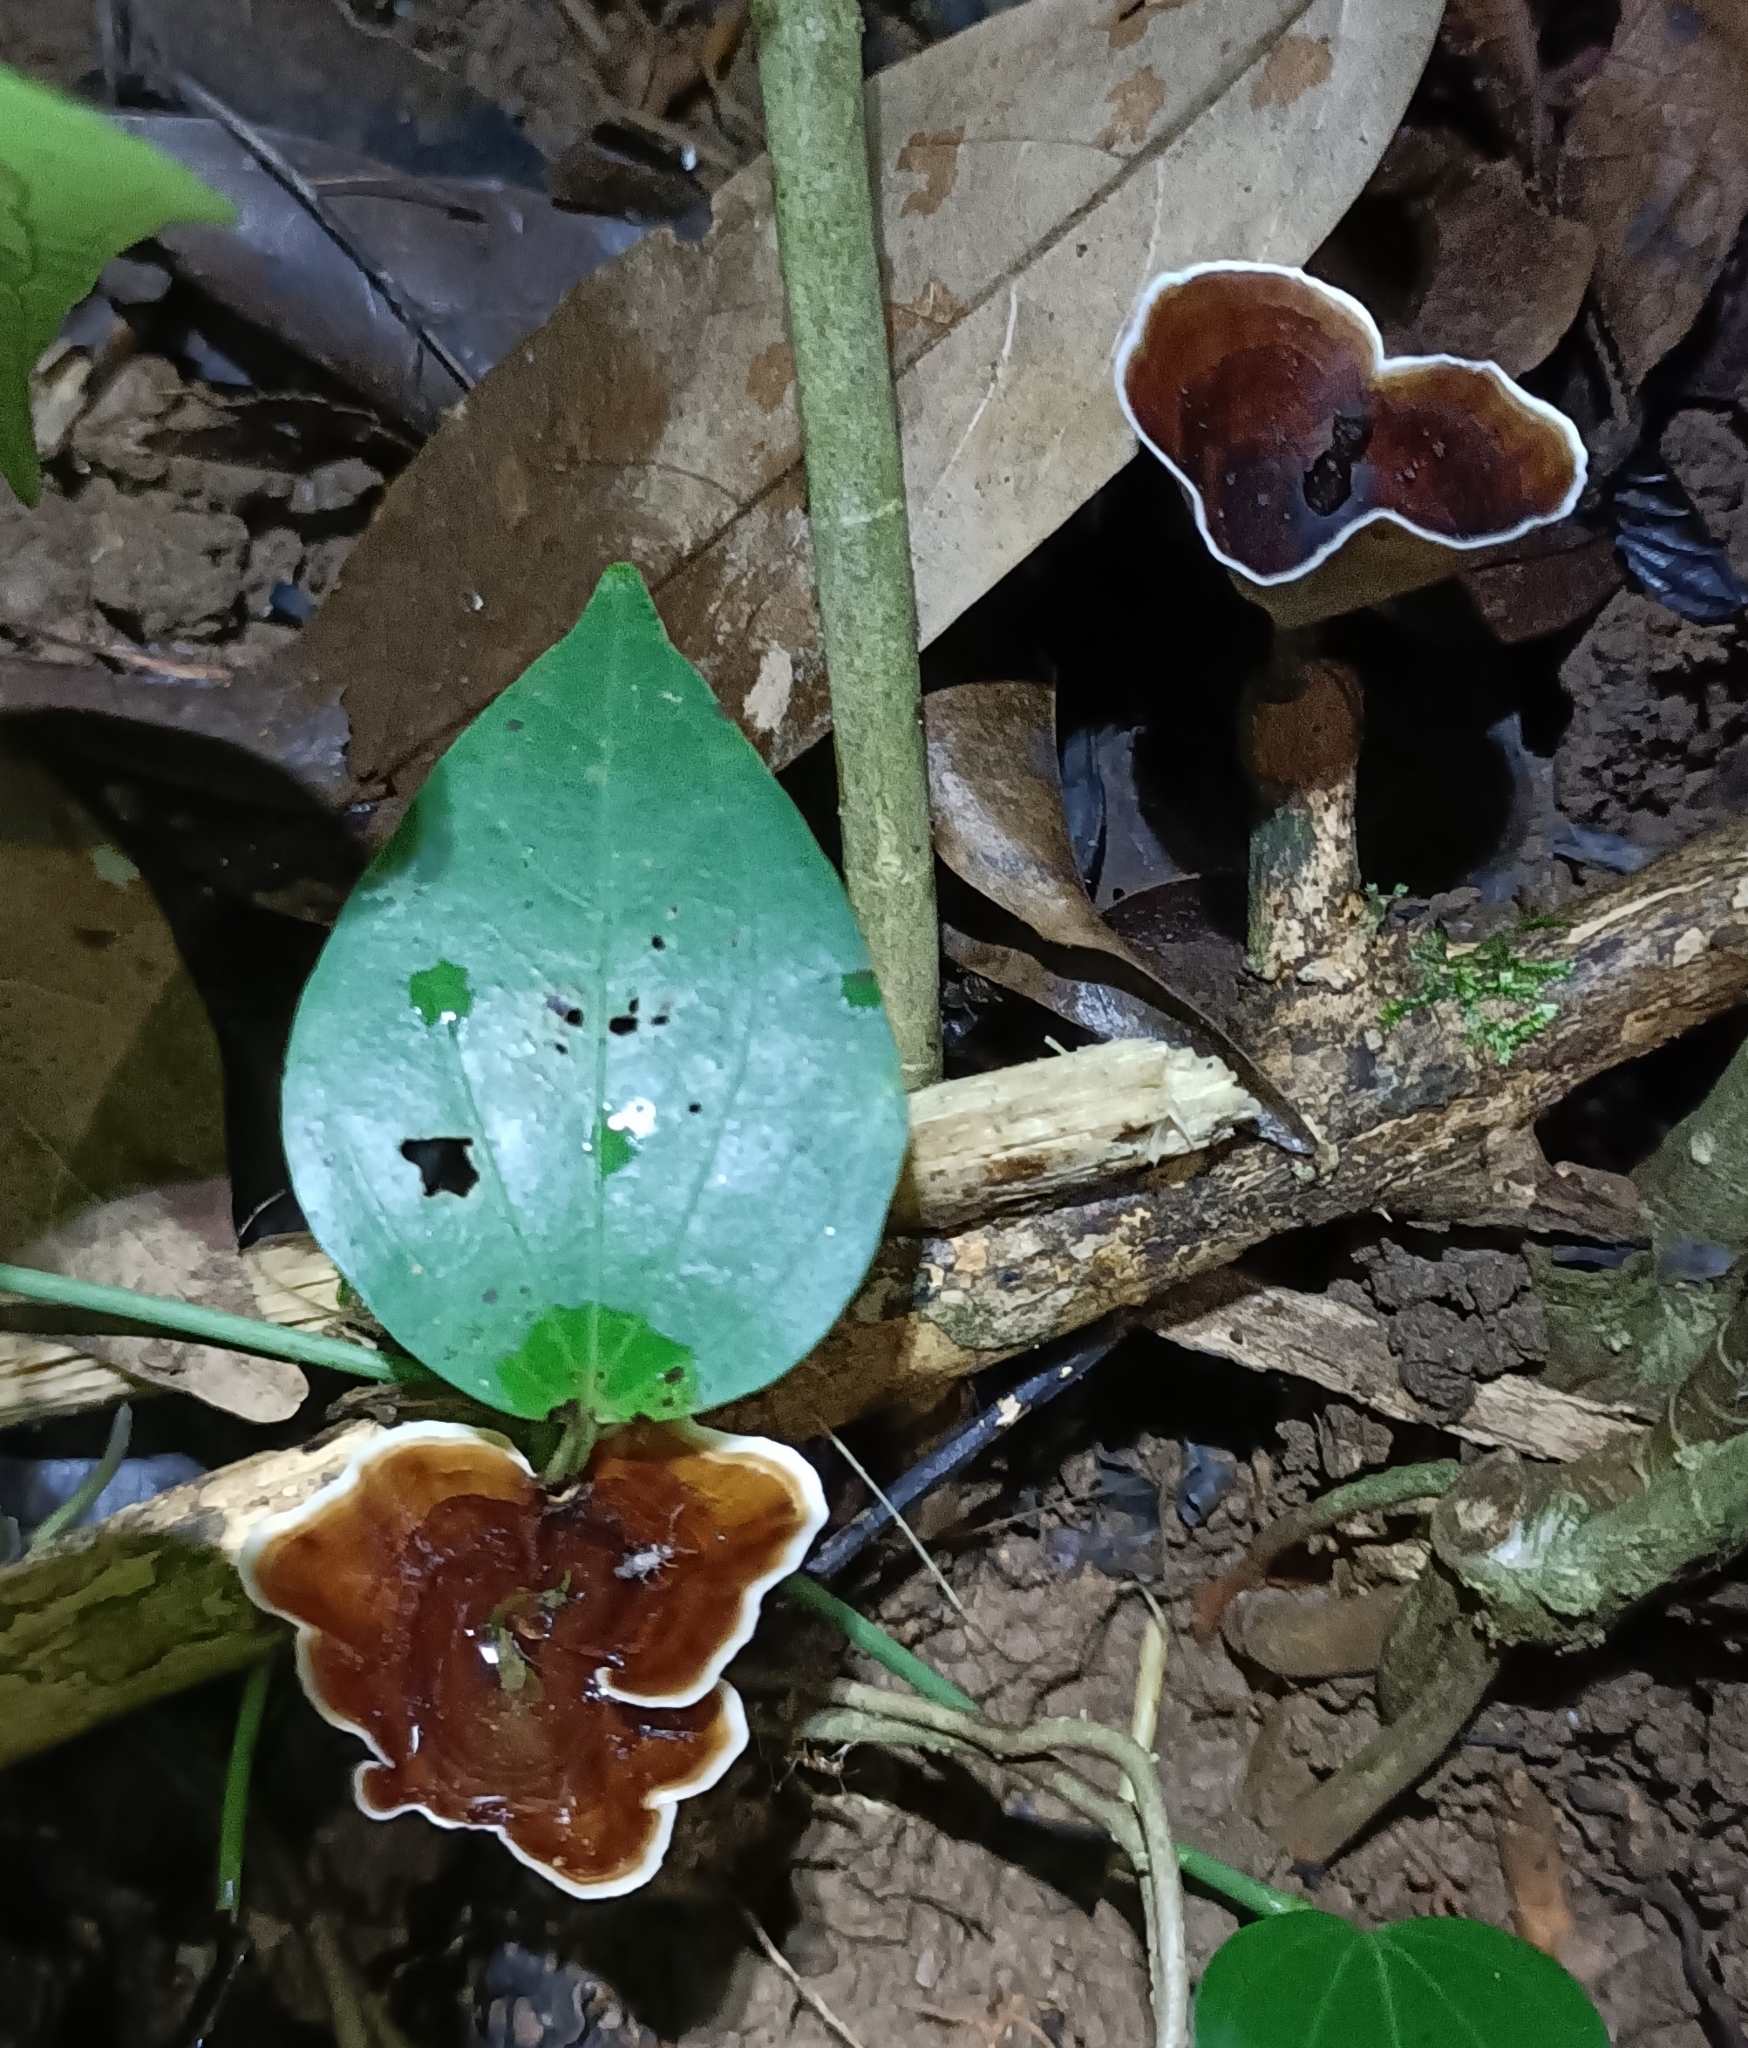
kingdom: Fungi
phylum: Basidiomycota
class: Agaricomycetes
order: Polyporales
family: Polyporaceae
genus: Microporus
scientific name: Microporus xanthopus
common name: Yellow-stemmed micropore
